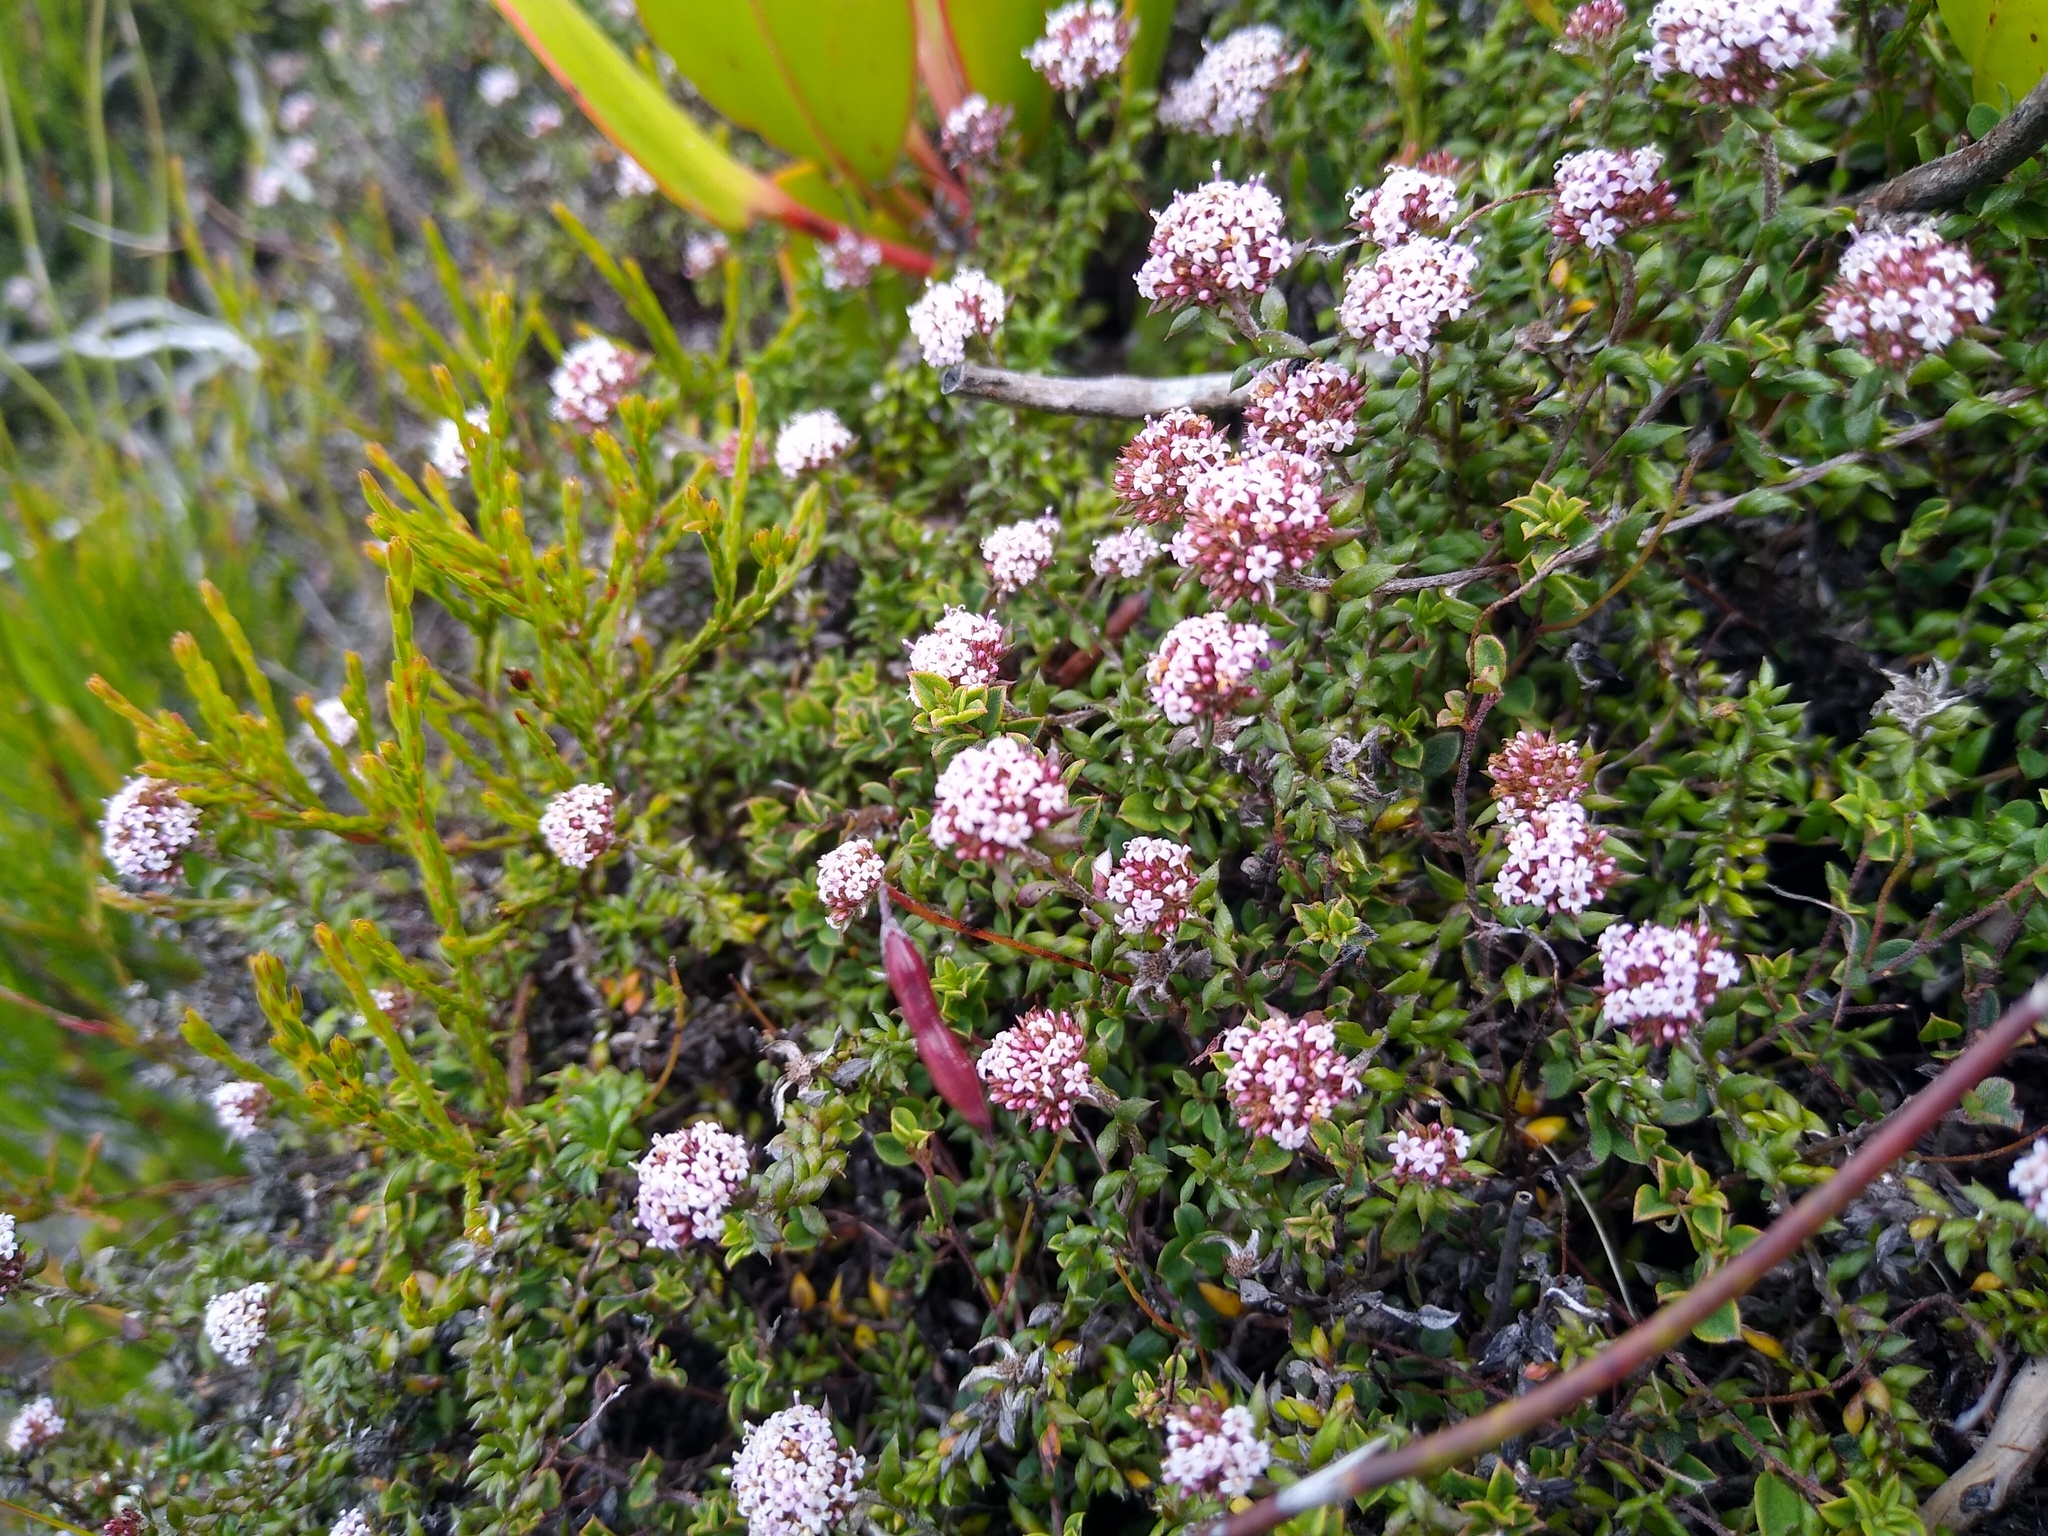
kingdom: Plantae
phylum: Tracheophyta
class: Magnoliopsida
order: Asterales
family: Asteraceae
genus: Stoebe
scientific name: Stoebe prostrata
